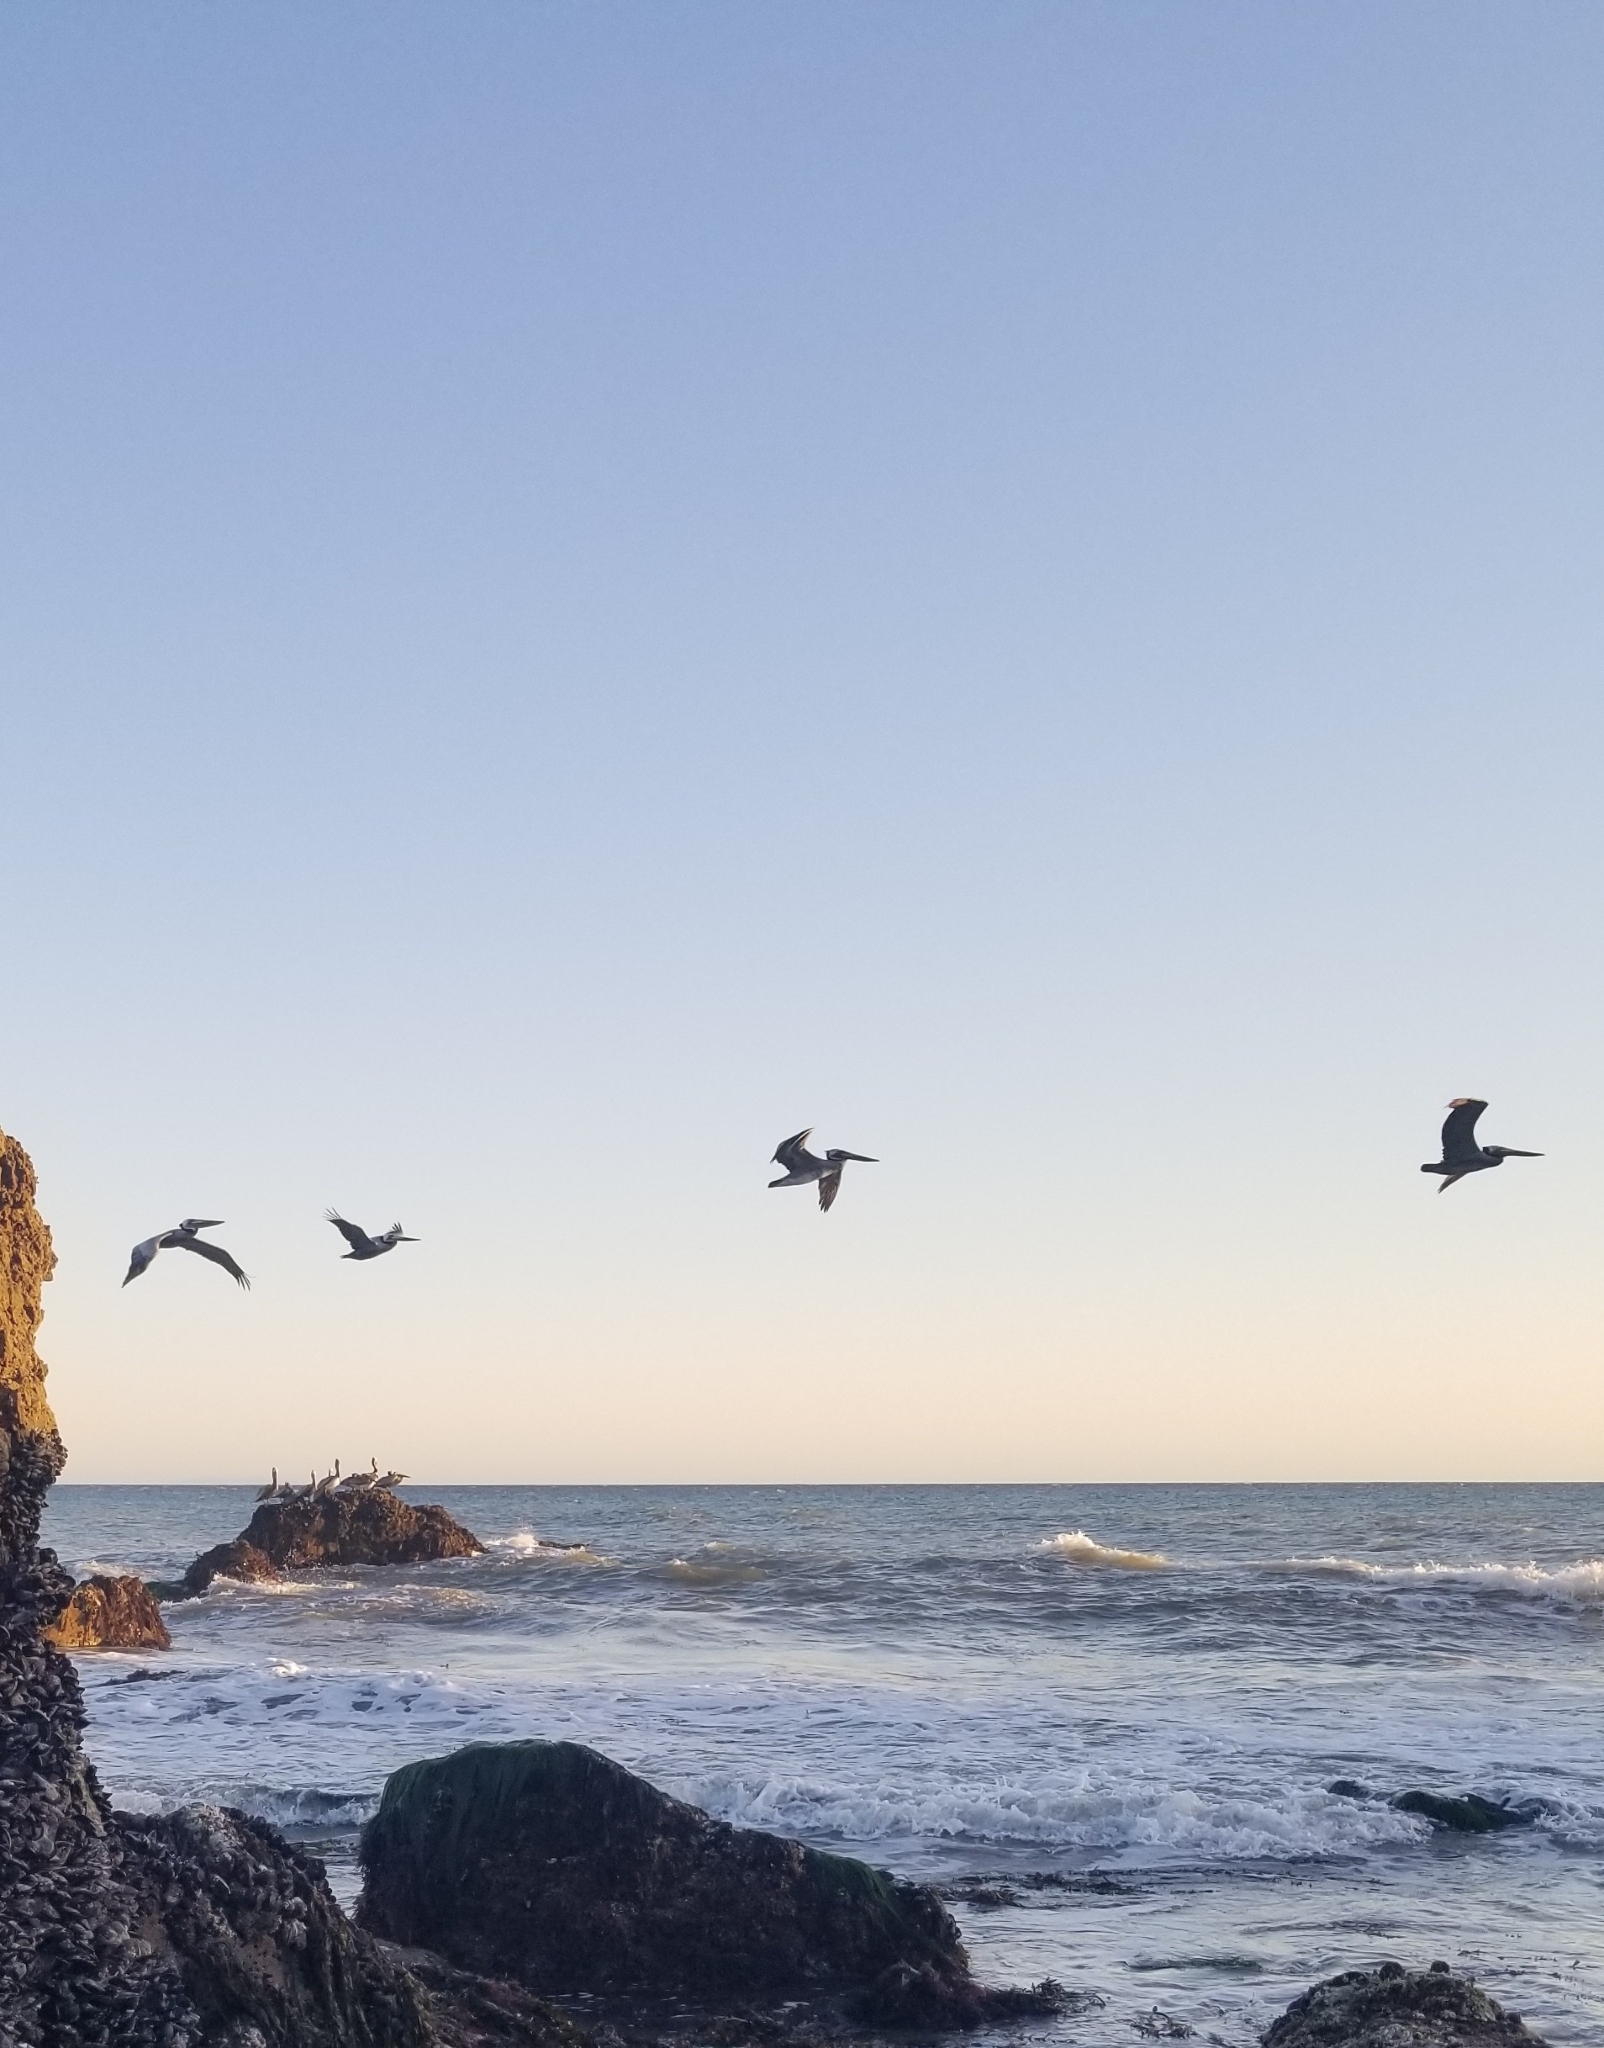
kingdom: Animalia
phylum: Chordata
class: Aves
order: Pelecaniformes
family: Pelecanidae
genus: Pelecanus
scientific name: Pelecanus occidentalis
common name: Brown pelican
